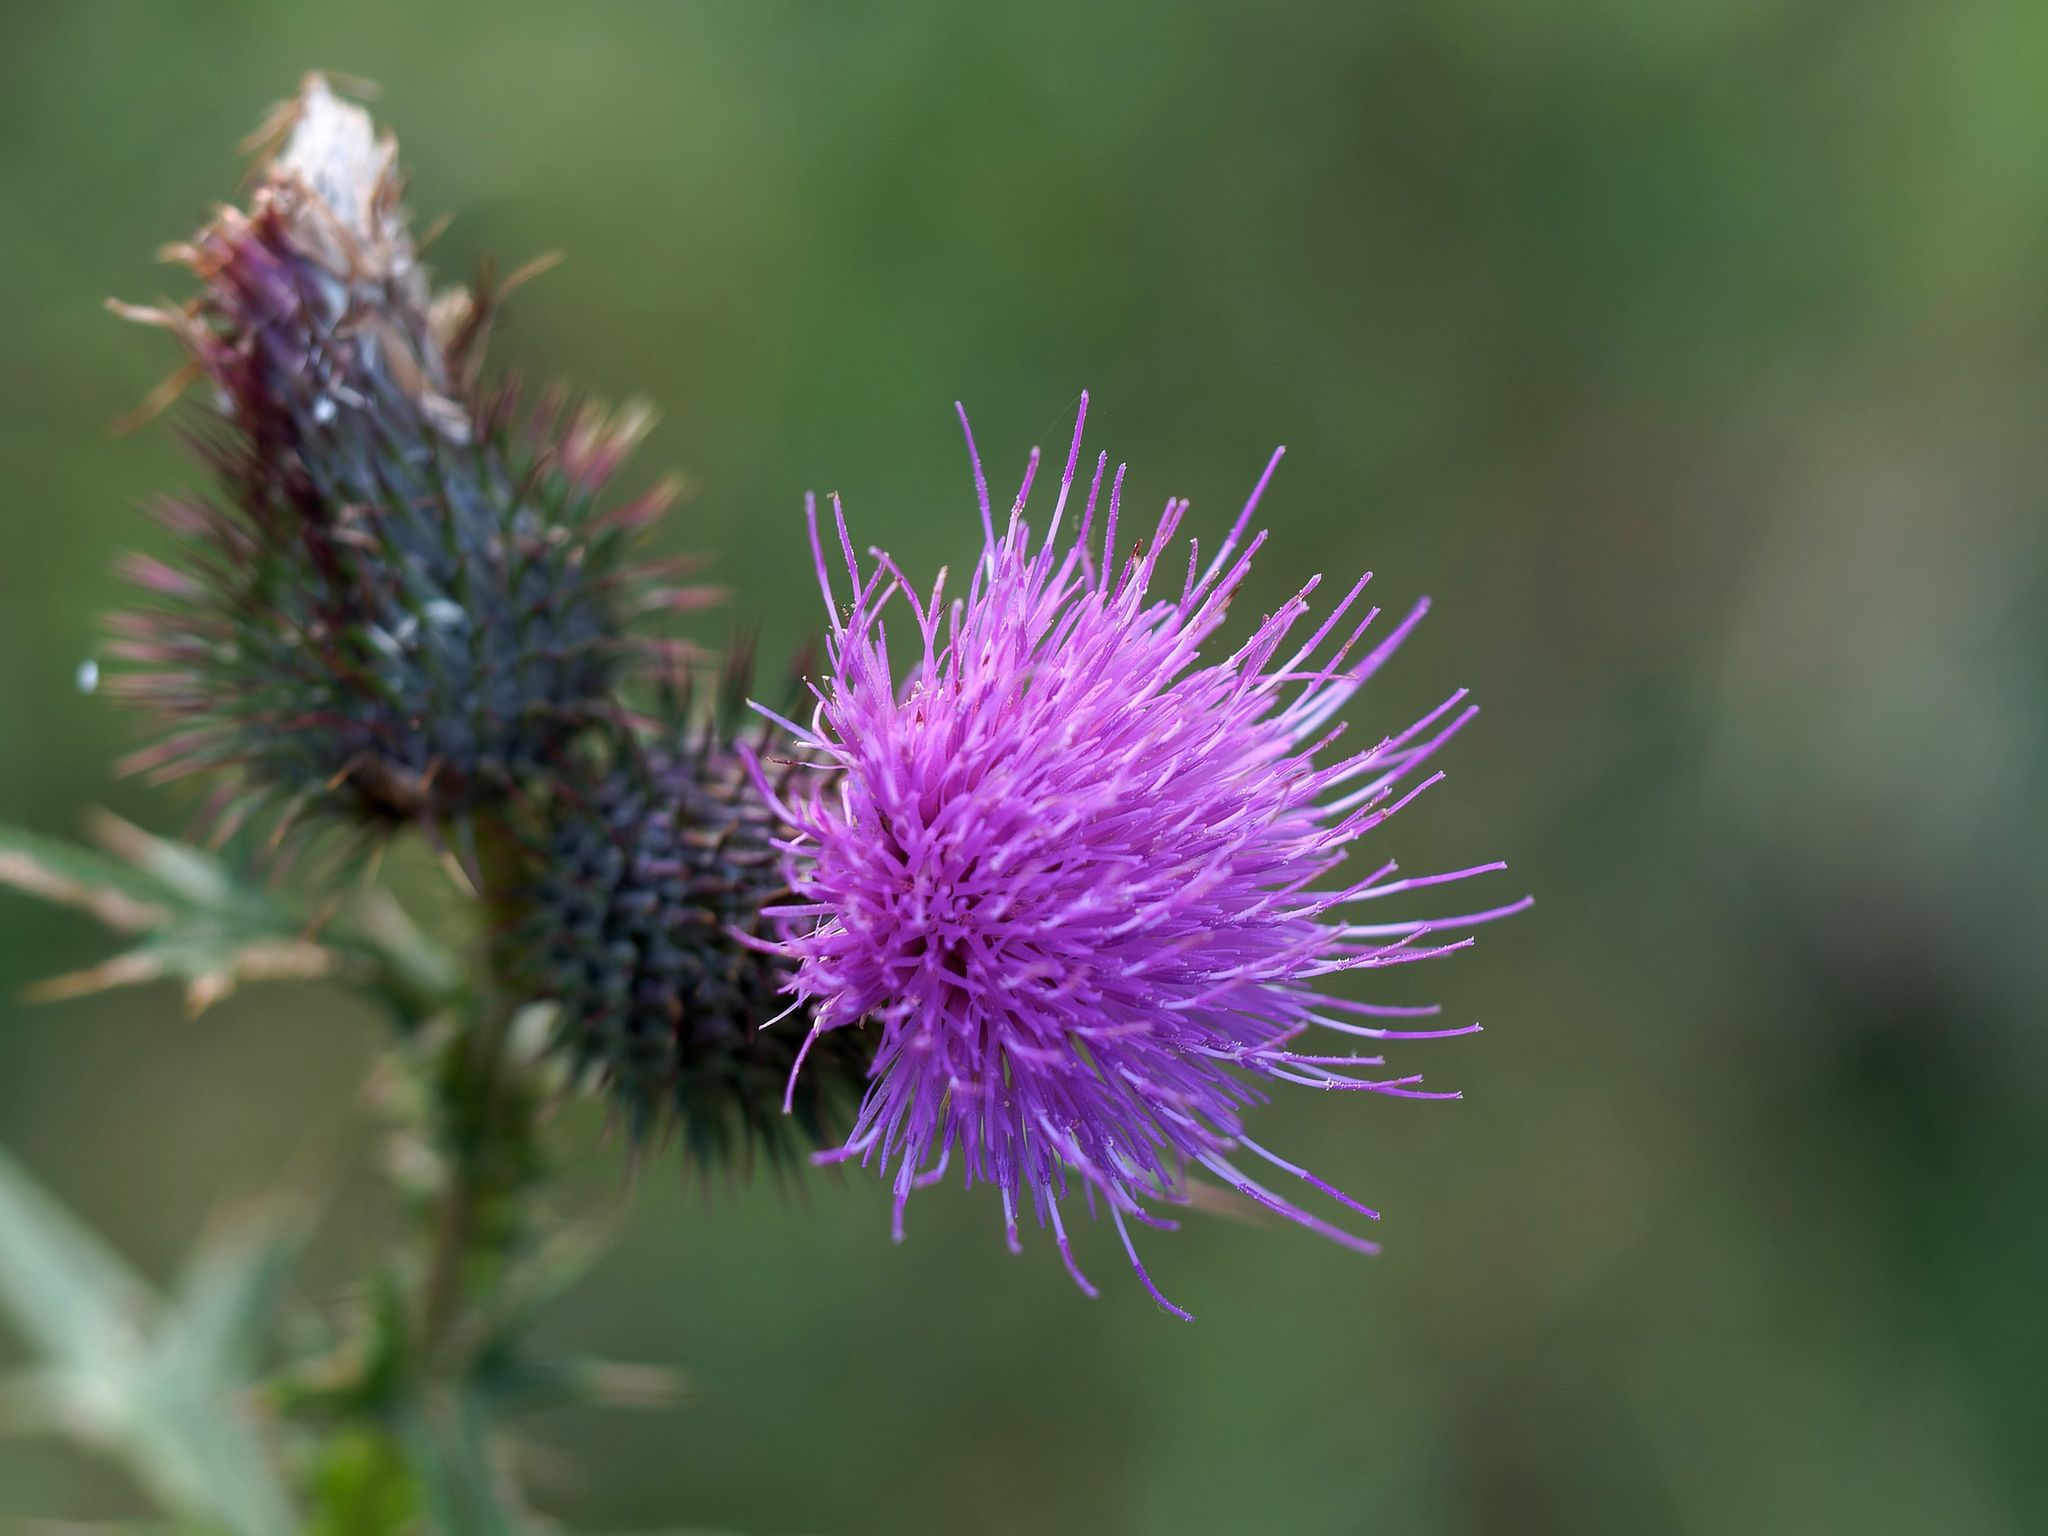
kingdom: Plantae
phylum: Tracheophyta
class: Magnoliopsida
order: Asterales
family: Asteraceae
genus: Cirsium
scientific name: Cirsium vulgare
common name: Bull thistle
